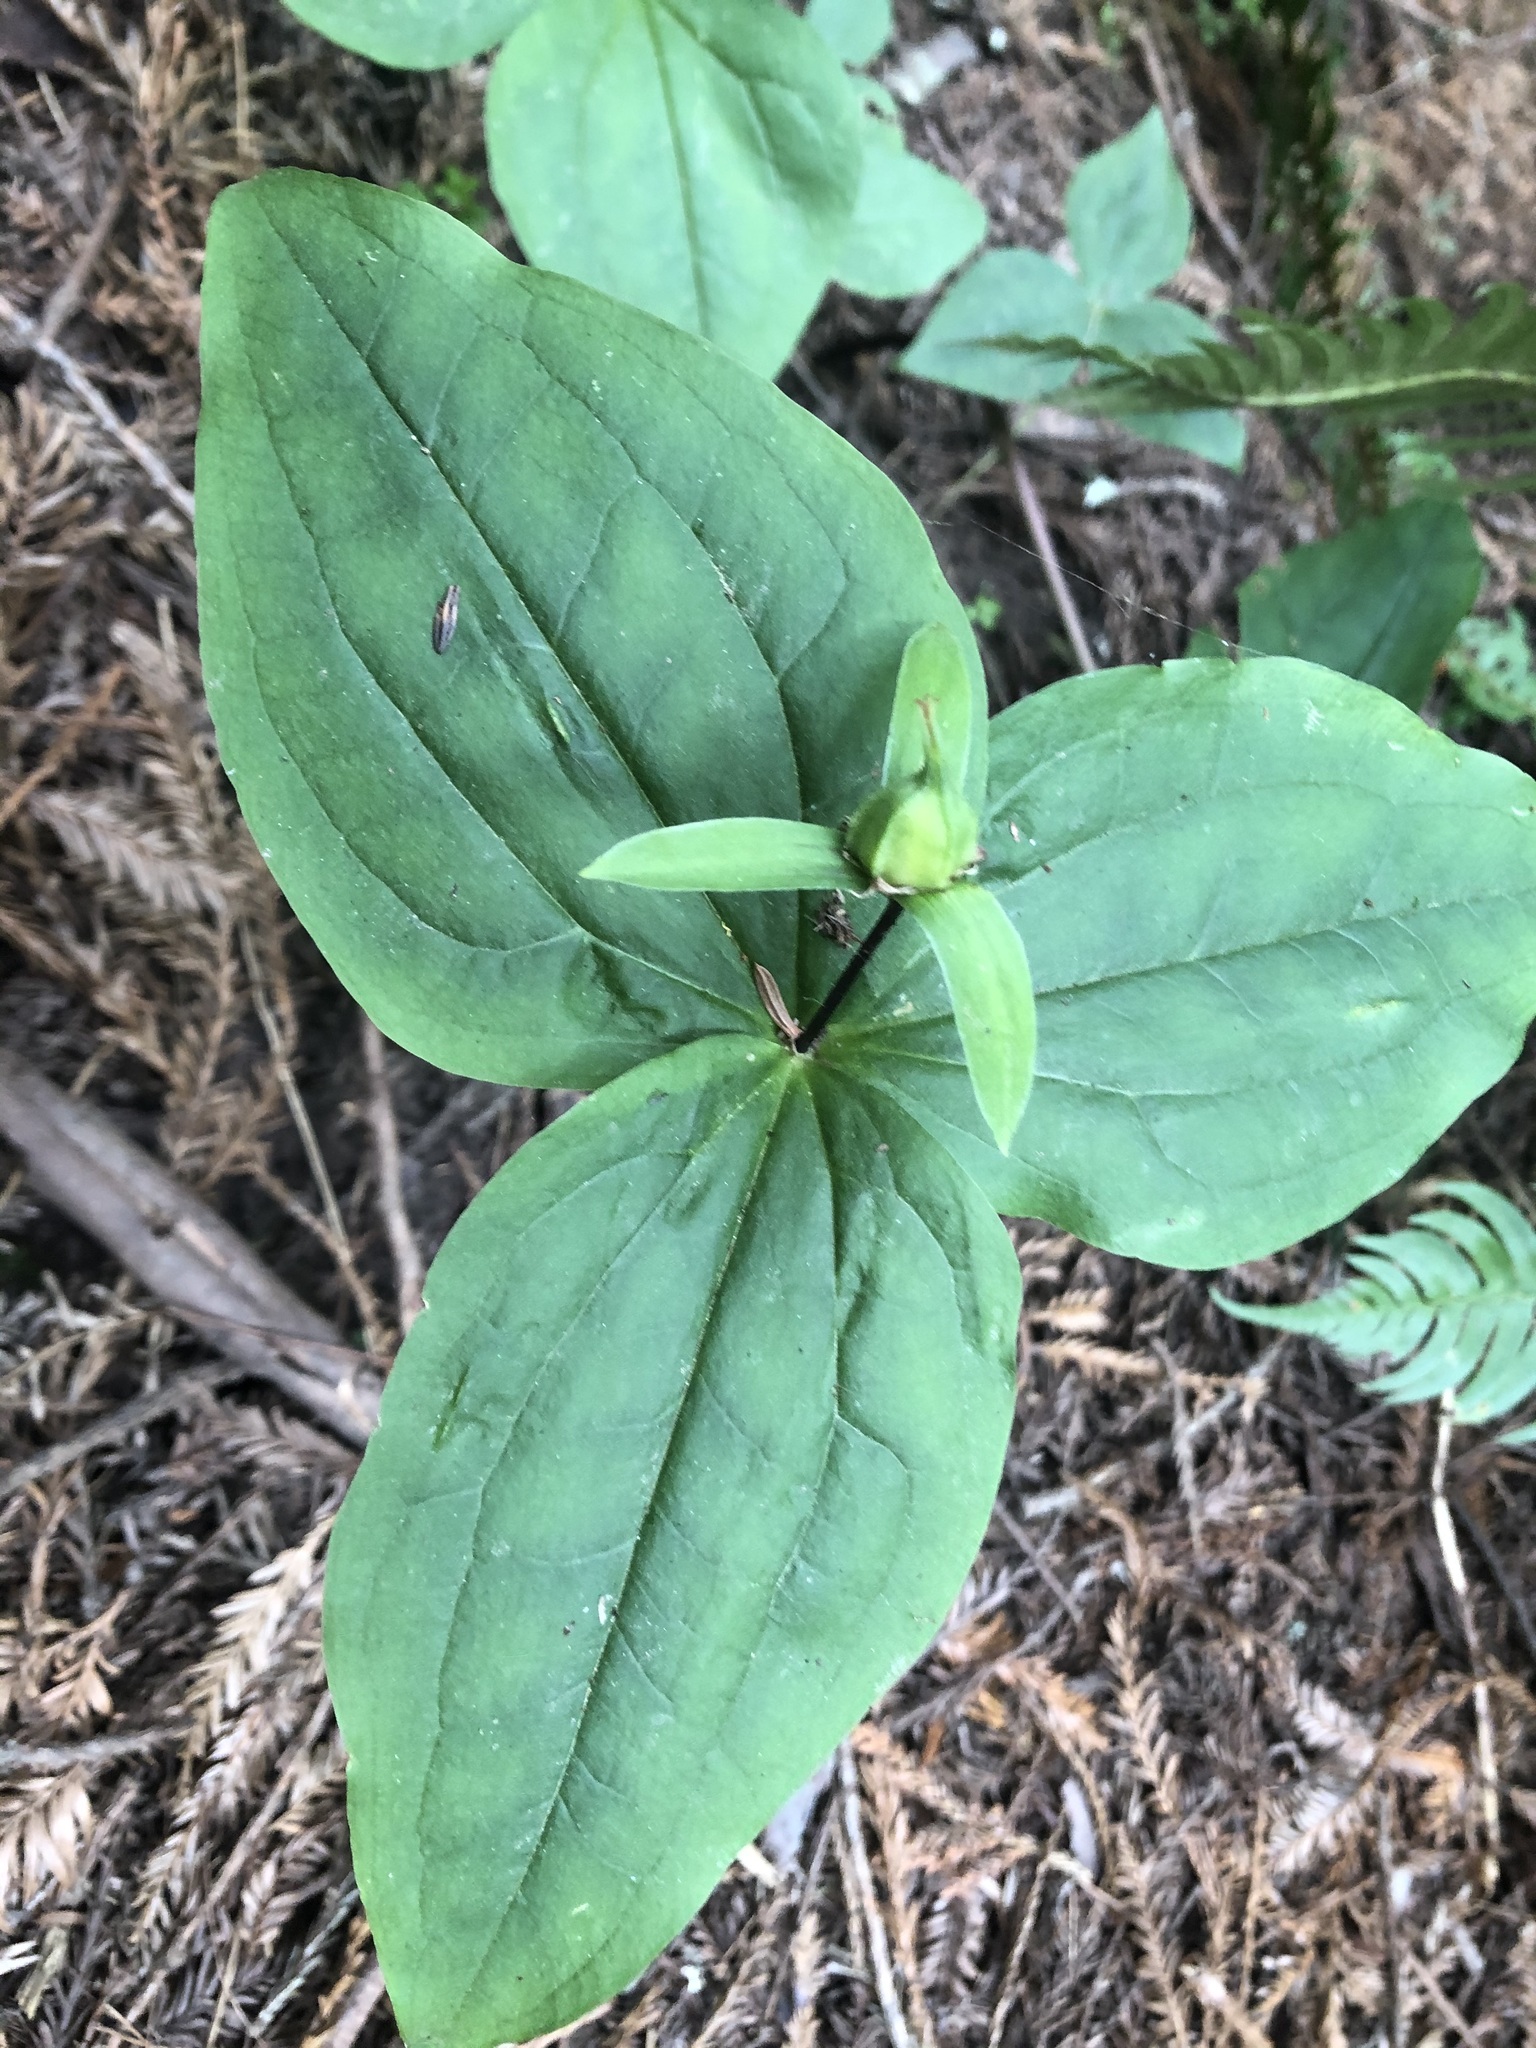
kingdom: Plantae
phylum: Tracheophyta
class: Liliopsida
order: Liliales
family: Melanthiaceae
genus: Trillium
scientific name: Trillium ovatum
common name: Pacific trillium
